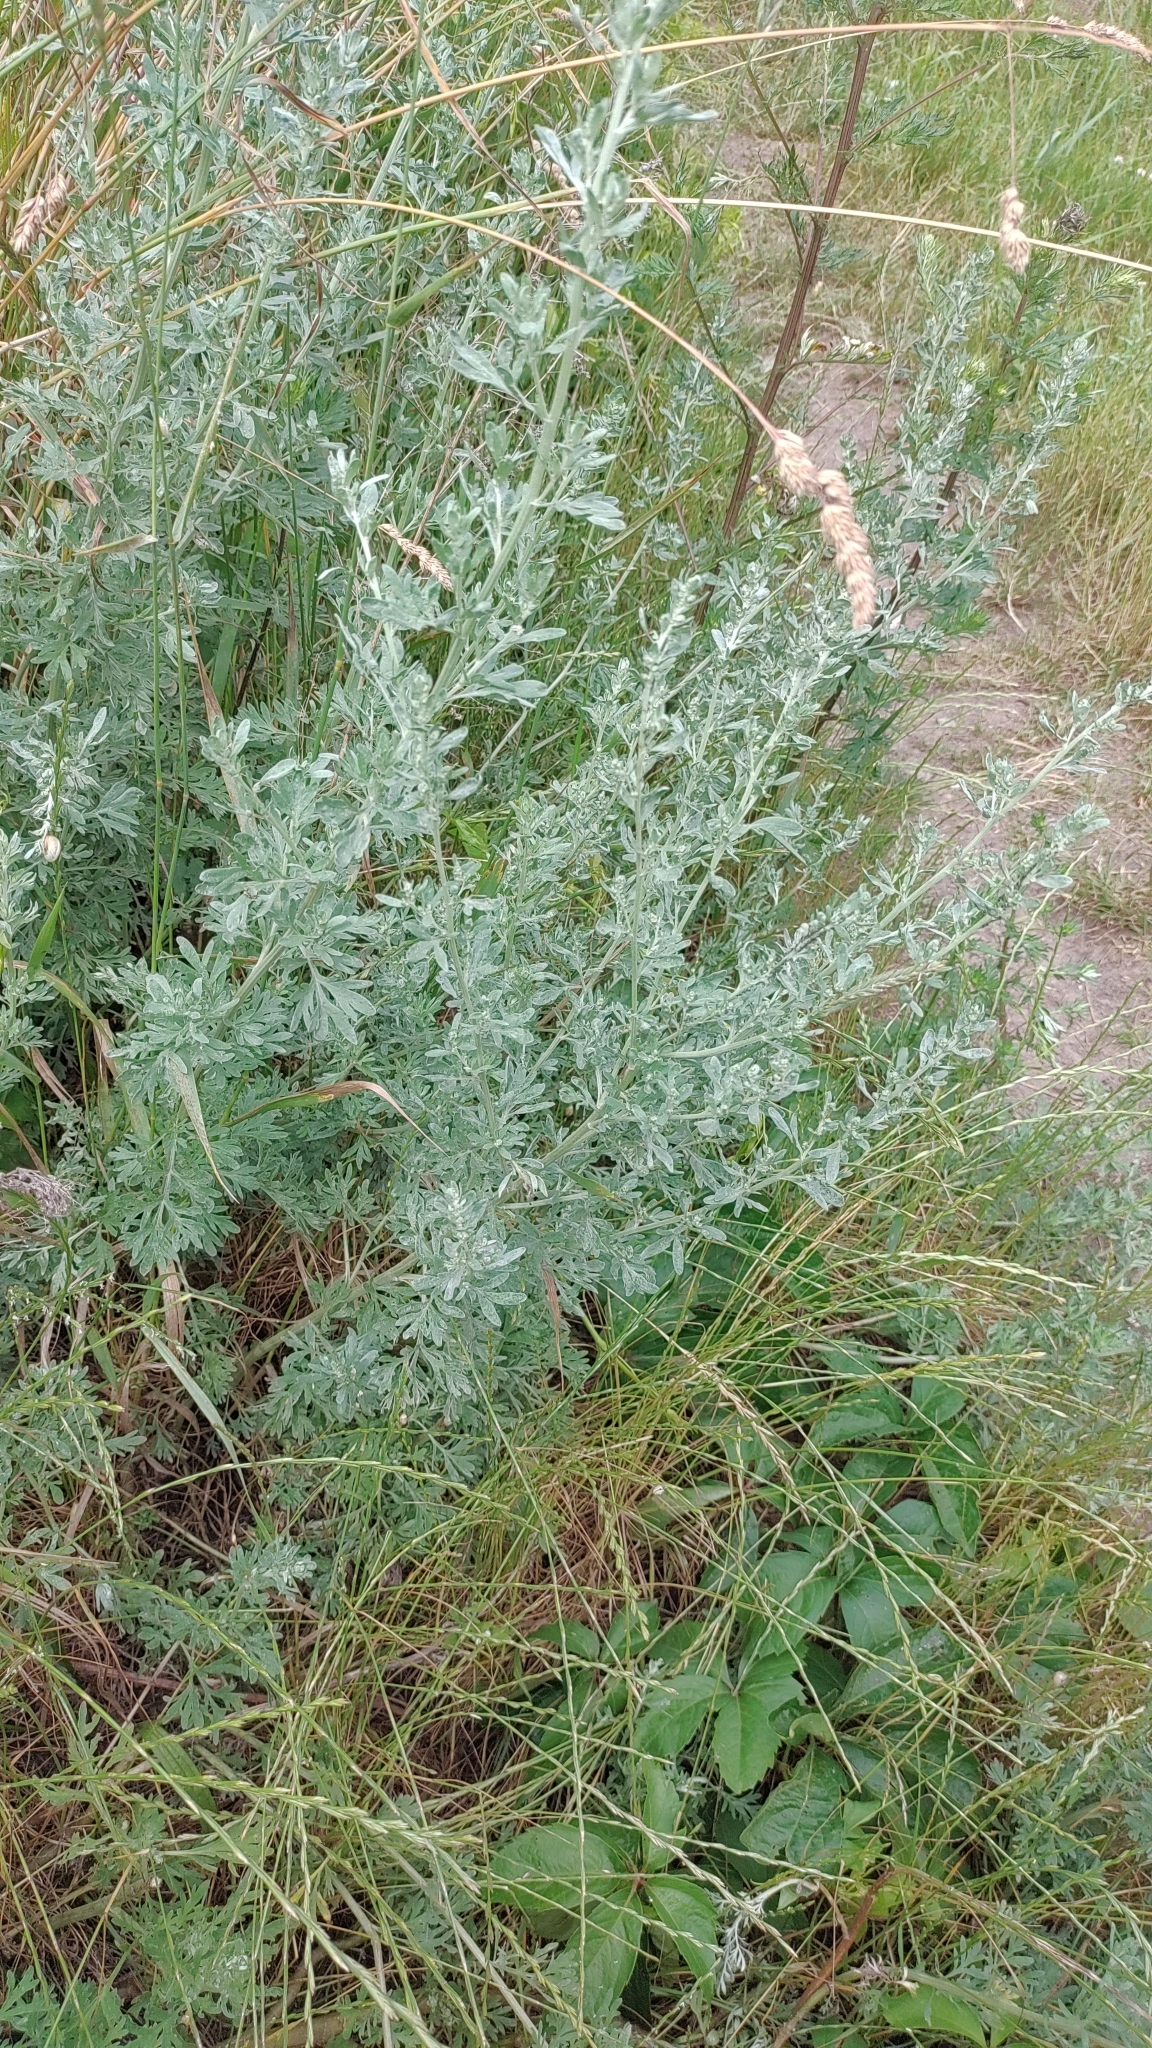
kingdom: Plantae
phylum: Tracheophyta
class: Magnoliopsida
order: Asterales
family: Asteraceae
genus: Artemisia
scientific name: Artemisia absinthium
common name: Wormwood
